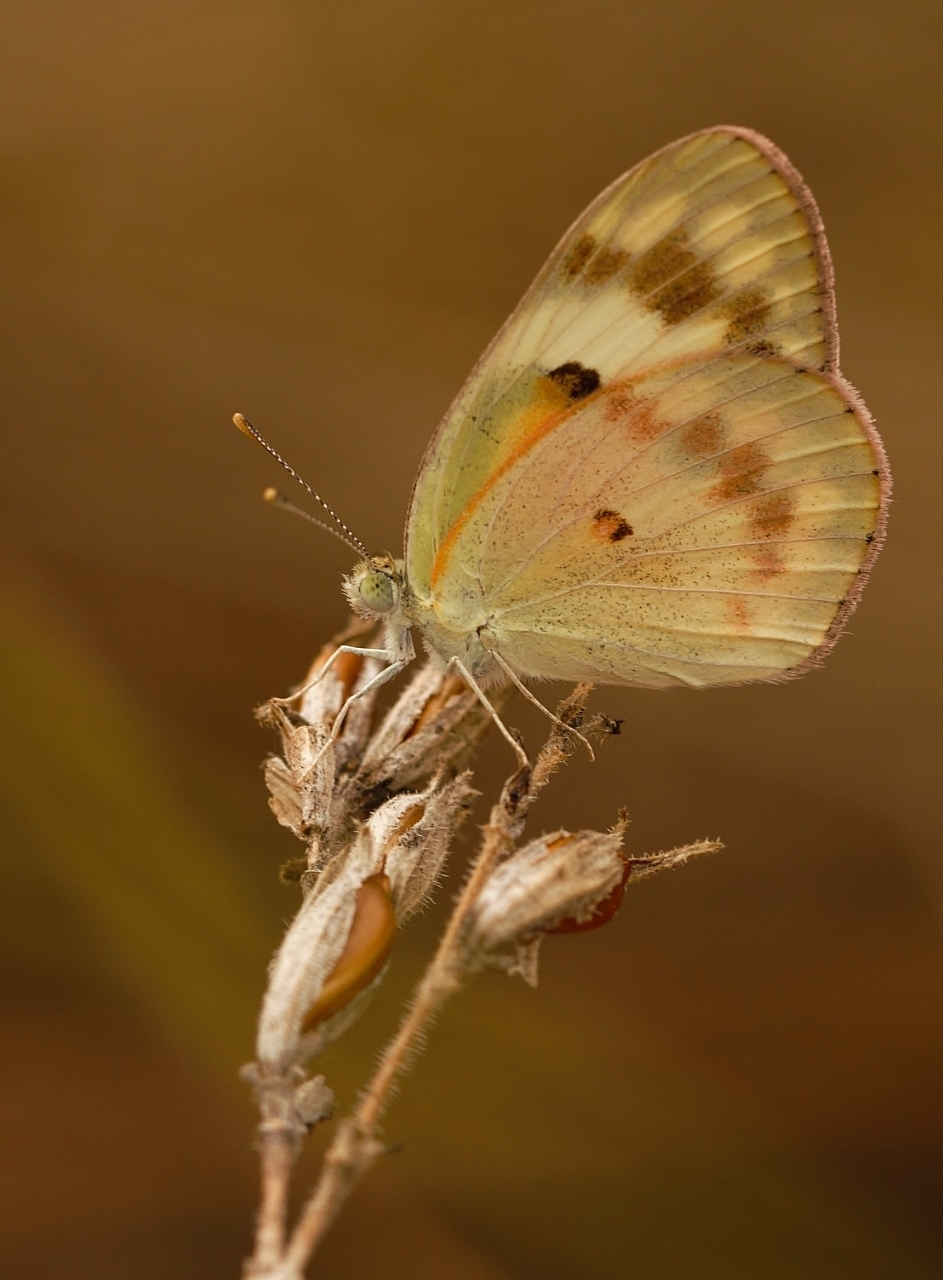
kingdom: Animalia
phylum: Arthropoda
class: Insecta
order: Lepidoptera
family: Pieridae
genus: Colotis
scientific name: Colotis amata
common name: Small salmon arab
